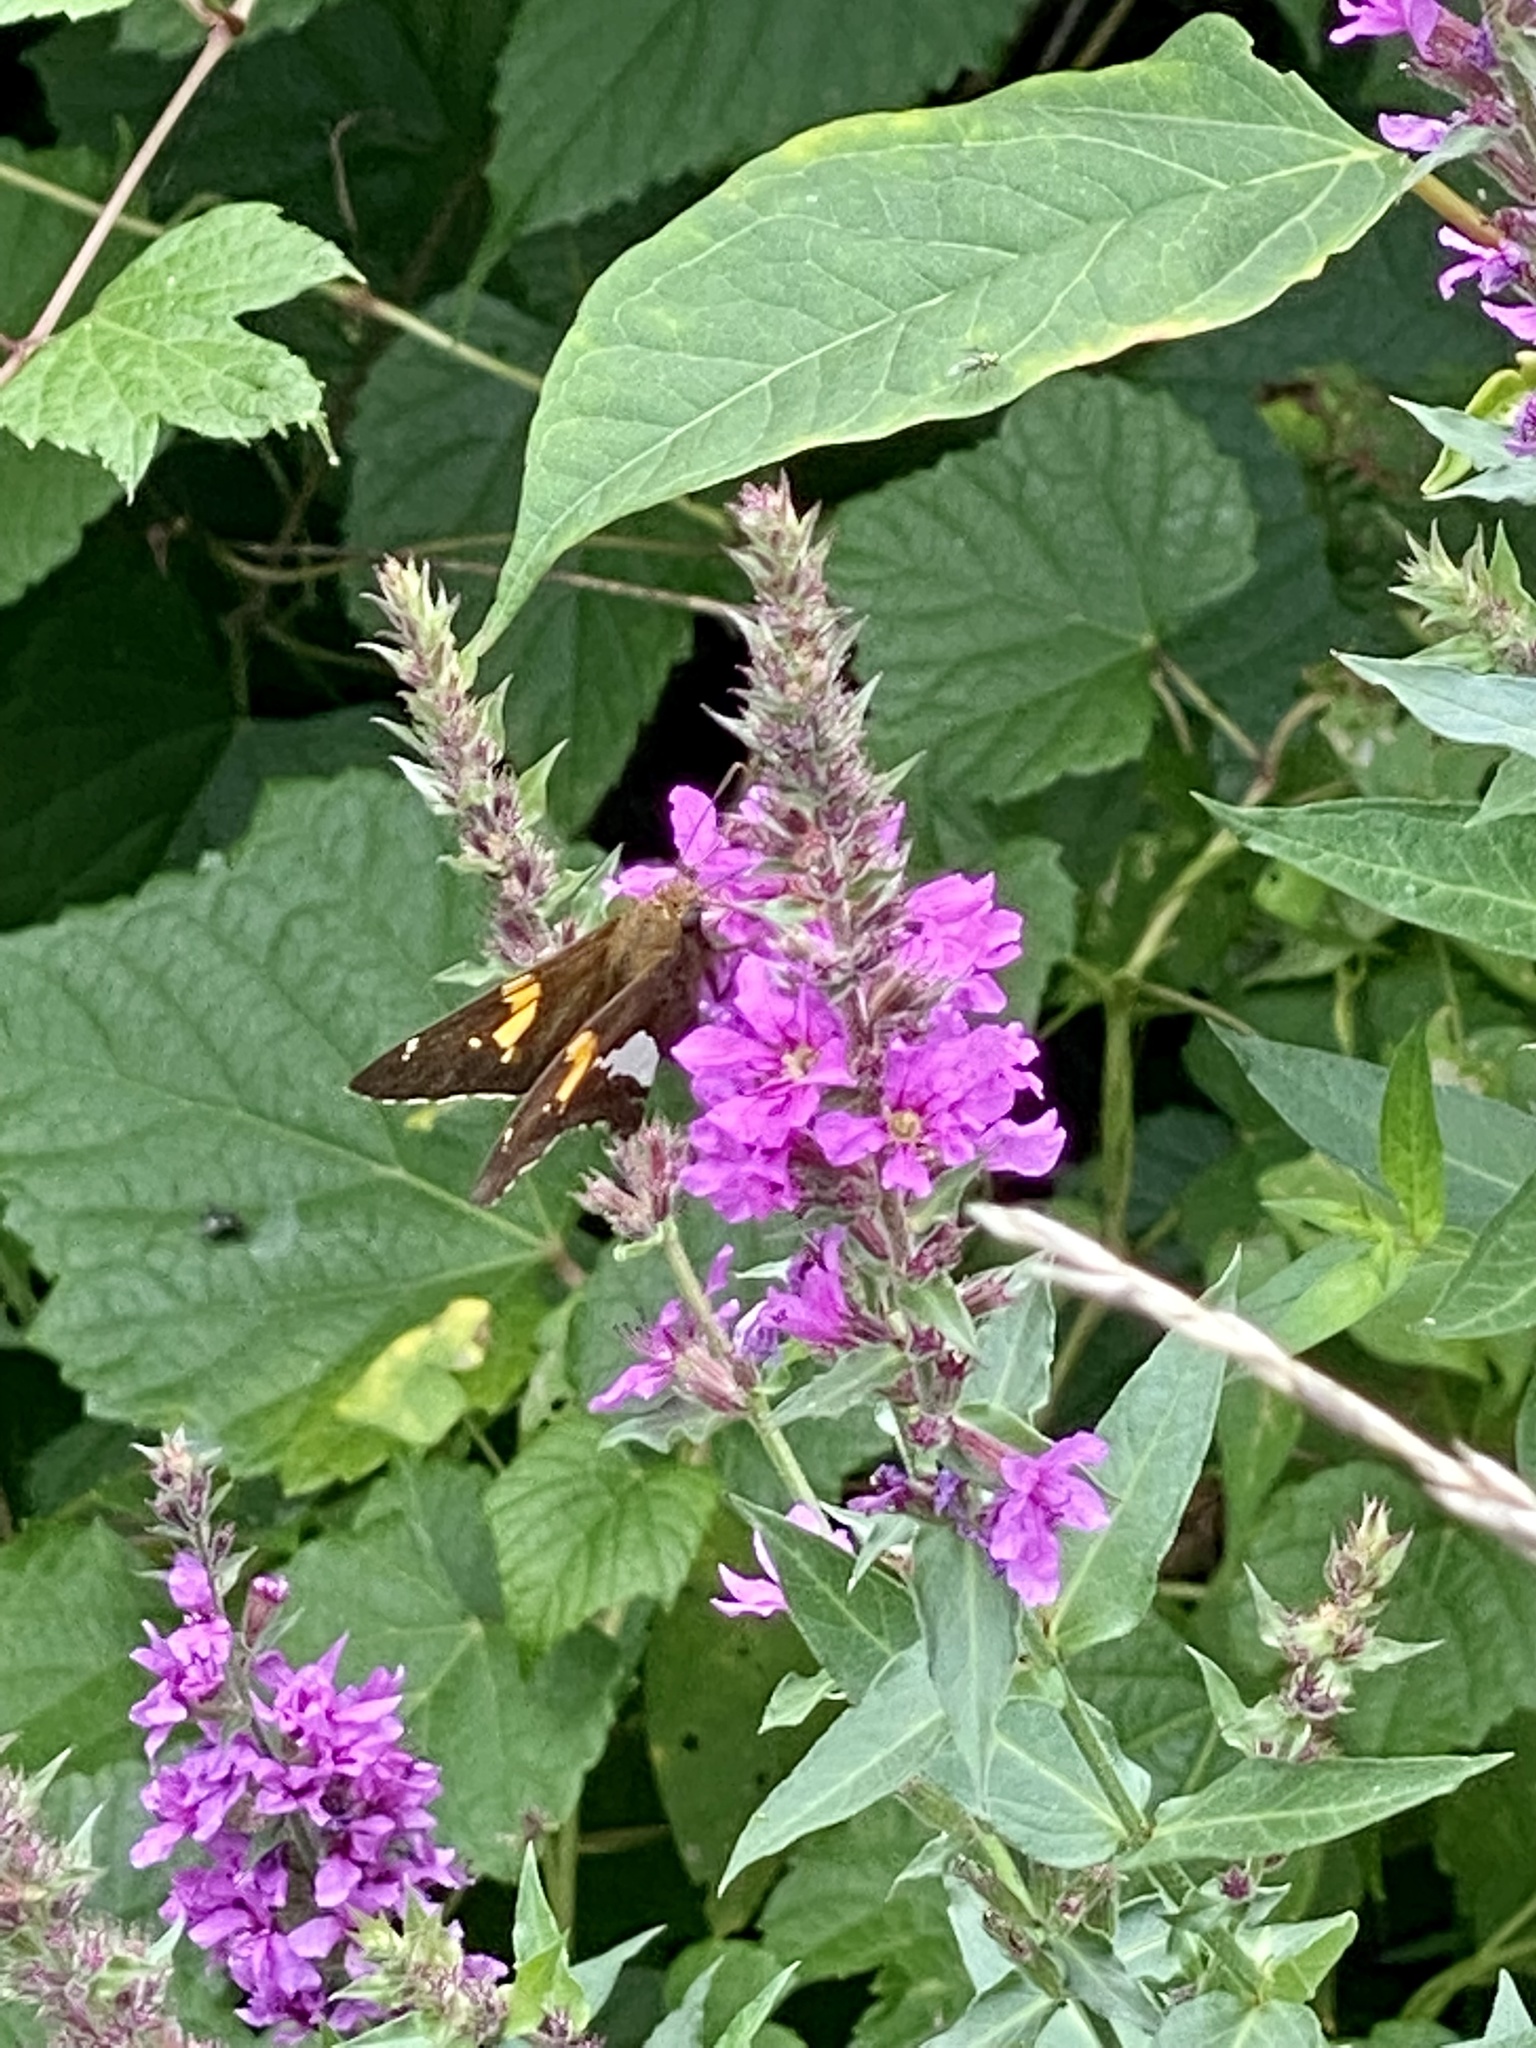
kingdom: Animalia
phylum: Arthropoda
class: Insecta
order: Lepidoptera
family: Hesperiidae
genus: Epargyreus
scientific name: Epargyreus clarus
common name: Silver-spotted skipper
